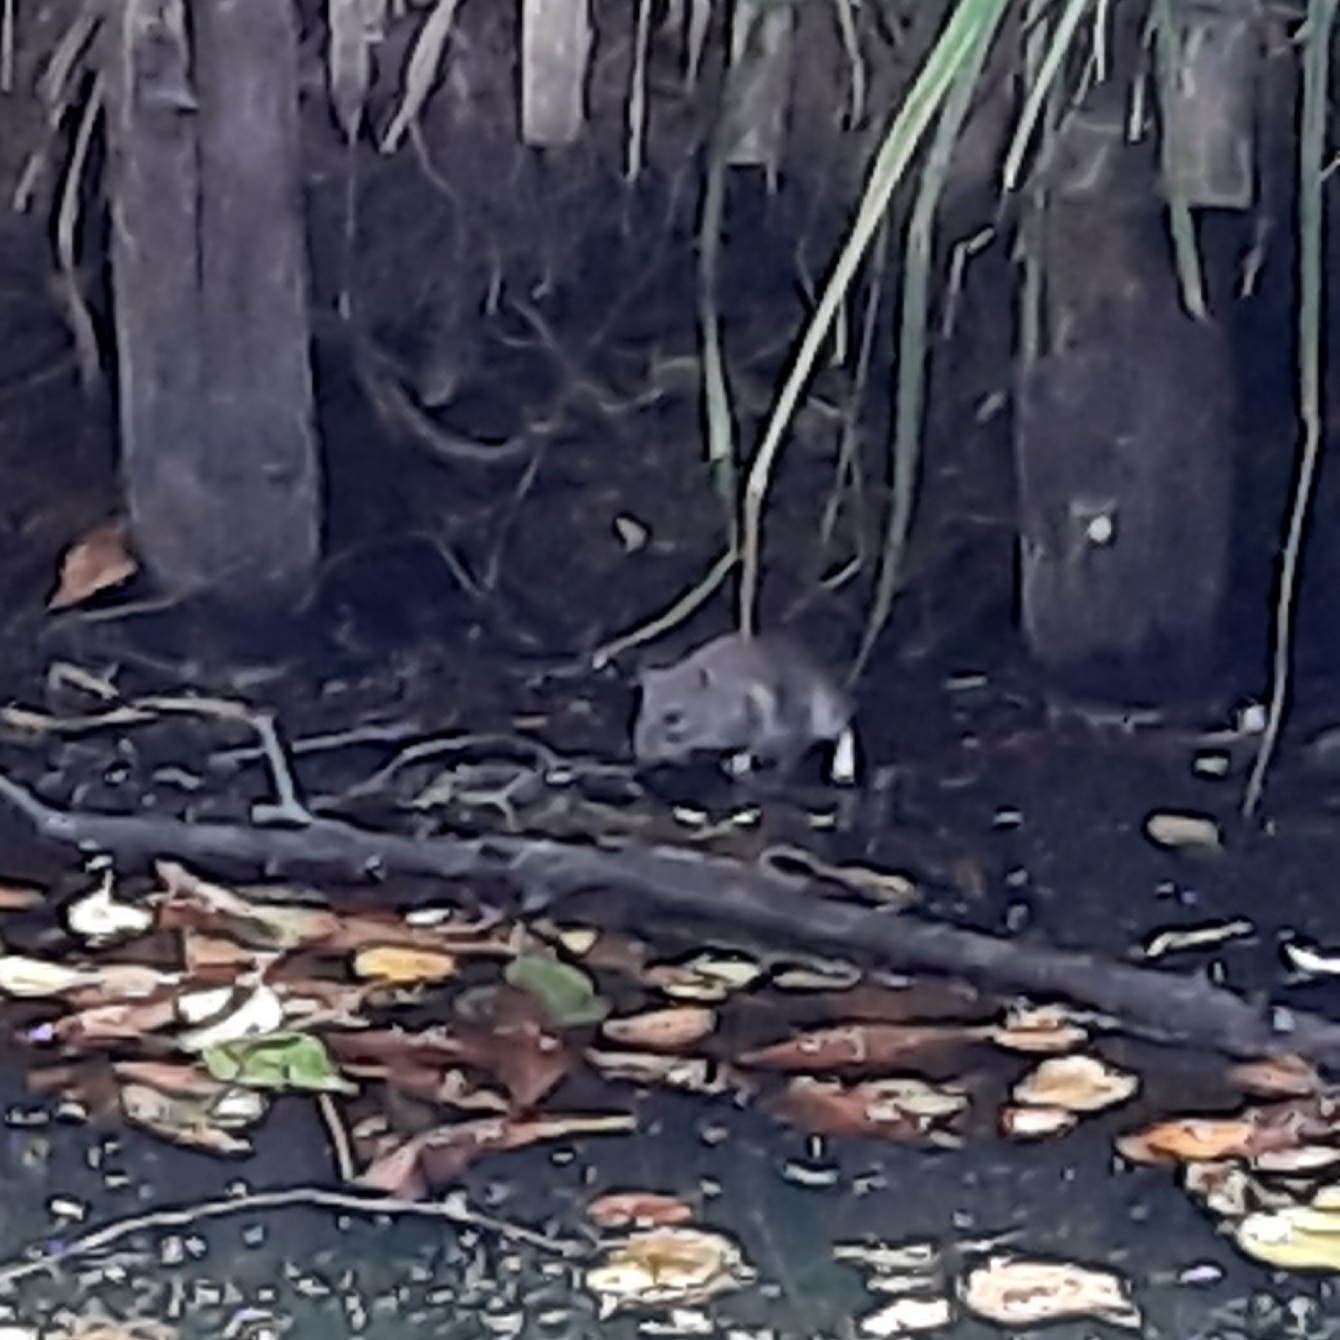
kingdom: Animalia
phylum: Chordata
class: Mammalia
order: Rodentia
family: Muridae
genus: Rattus
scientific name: Rattus norvegicus
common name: Brown rat
